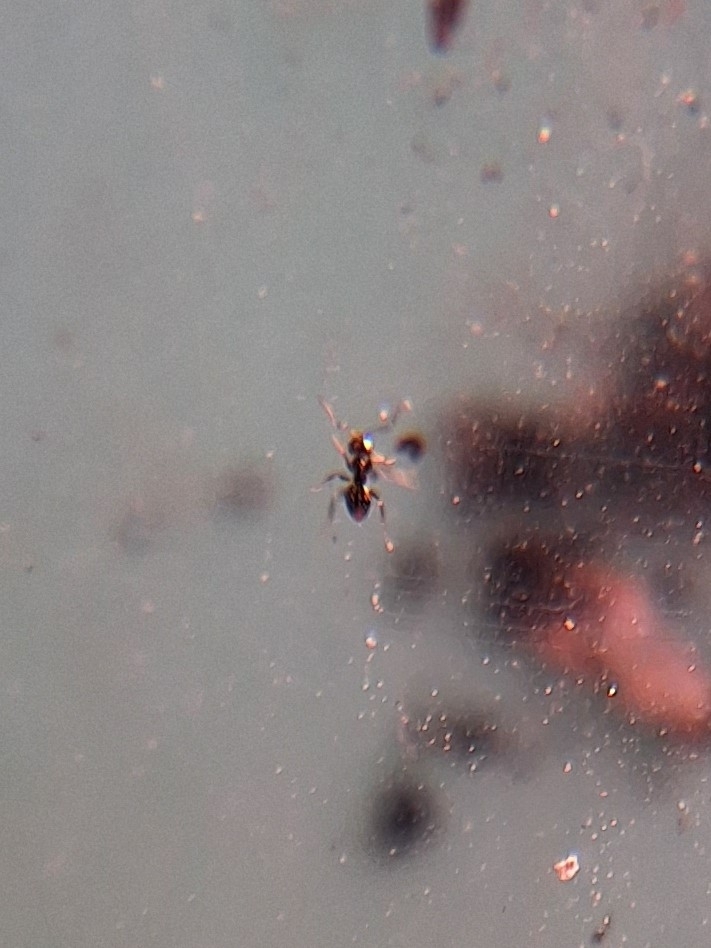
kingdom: Animalia
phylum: Arthropoda
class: Insecta
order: Hymenoptera
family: Formicidae
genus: Brachymyrmex
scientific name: Brachymyrmex patagonicus
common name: Dark rover ant
